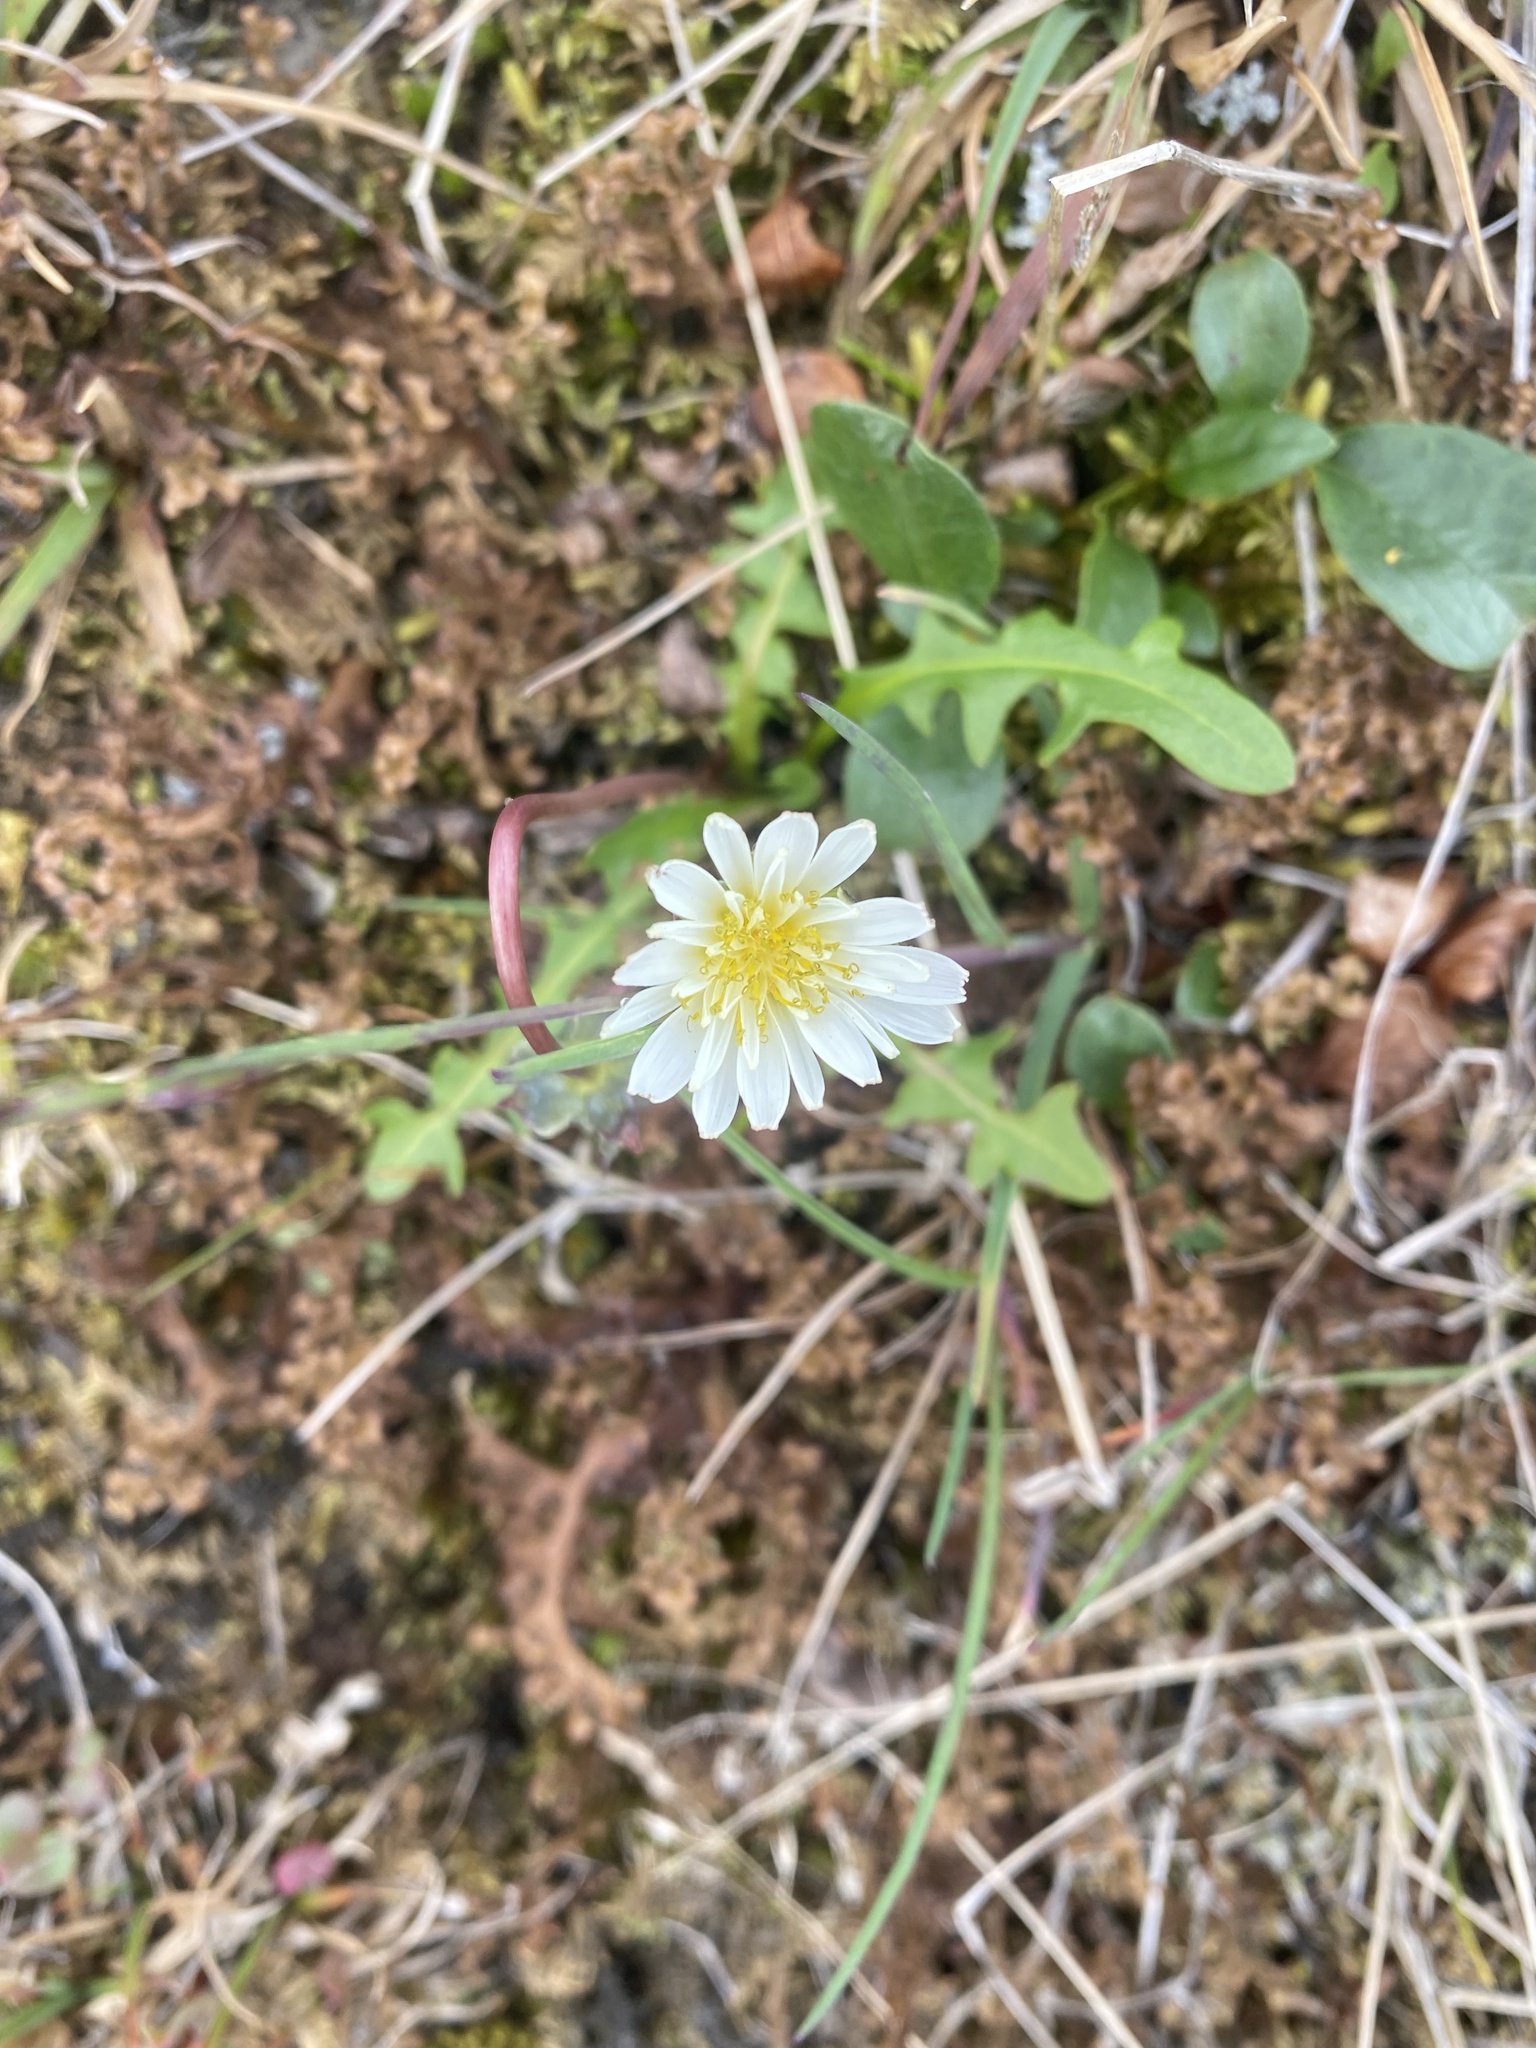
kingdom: Plantae
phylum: Tracheophyta
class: Magnoliopsida
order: Asterales
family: Asteraceae
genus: Taraxacum
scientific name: Taraxacum arcticum
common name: Arctic dandelion
